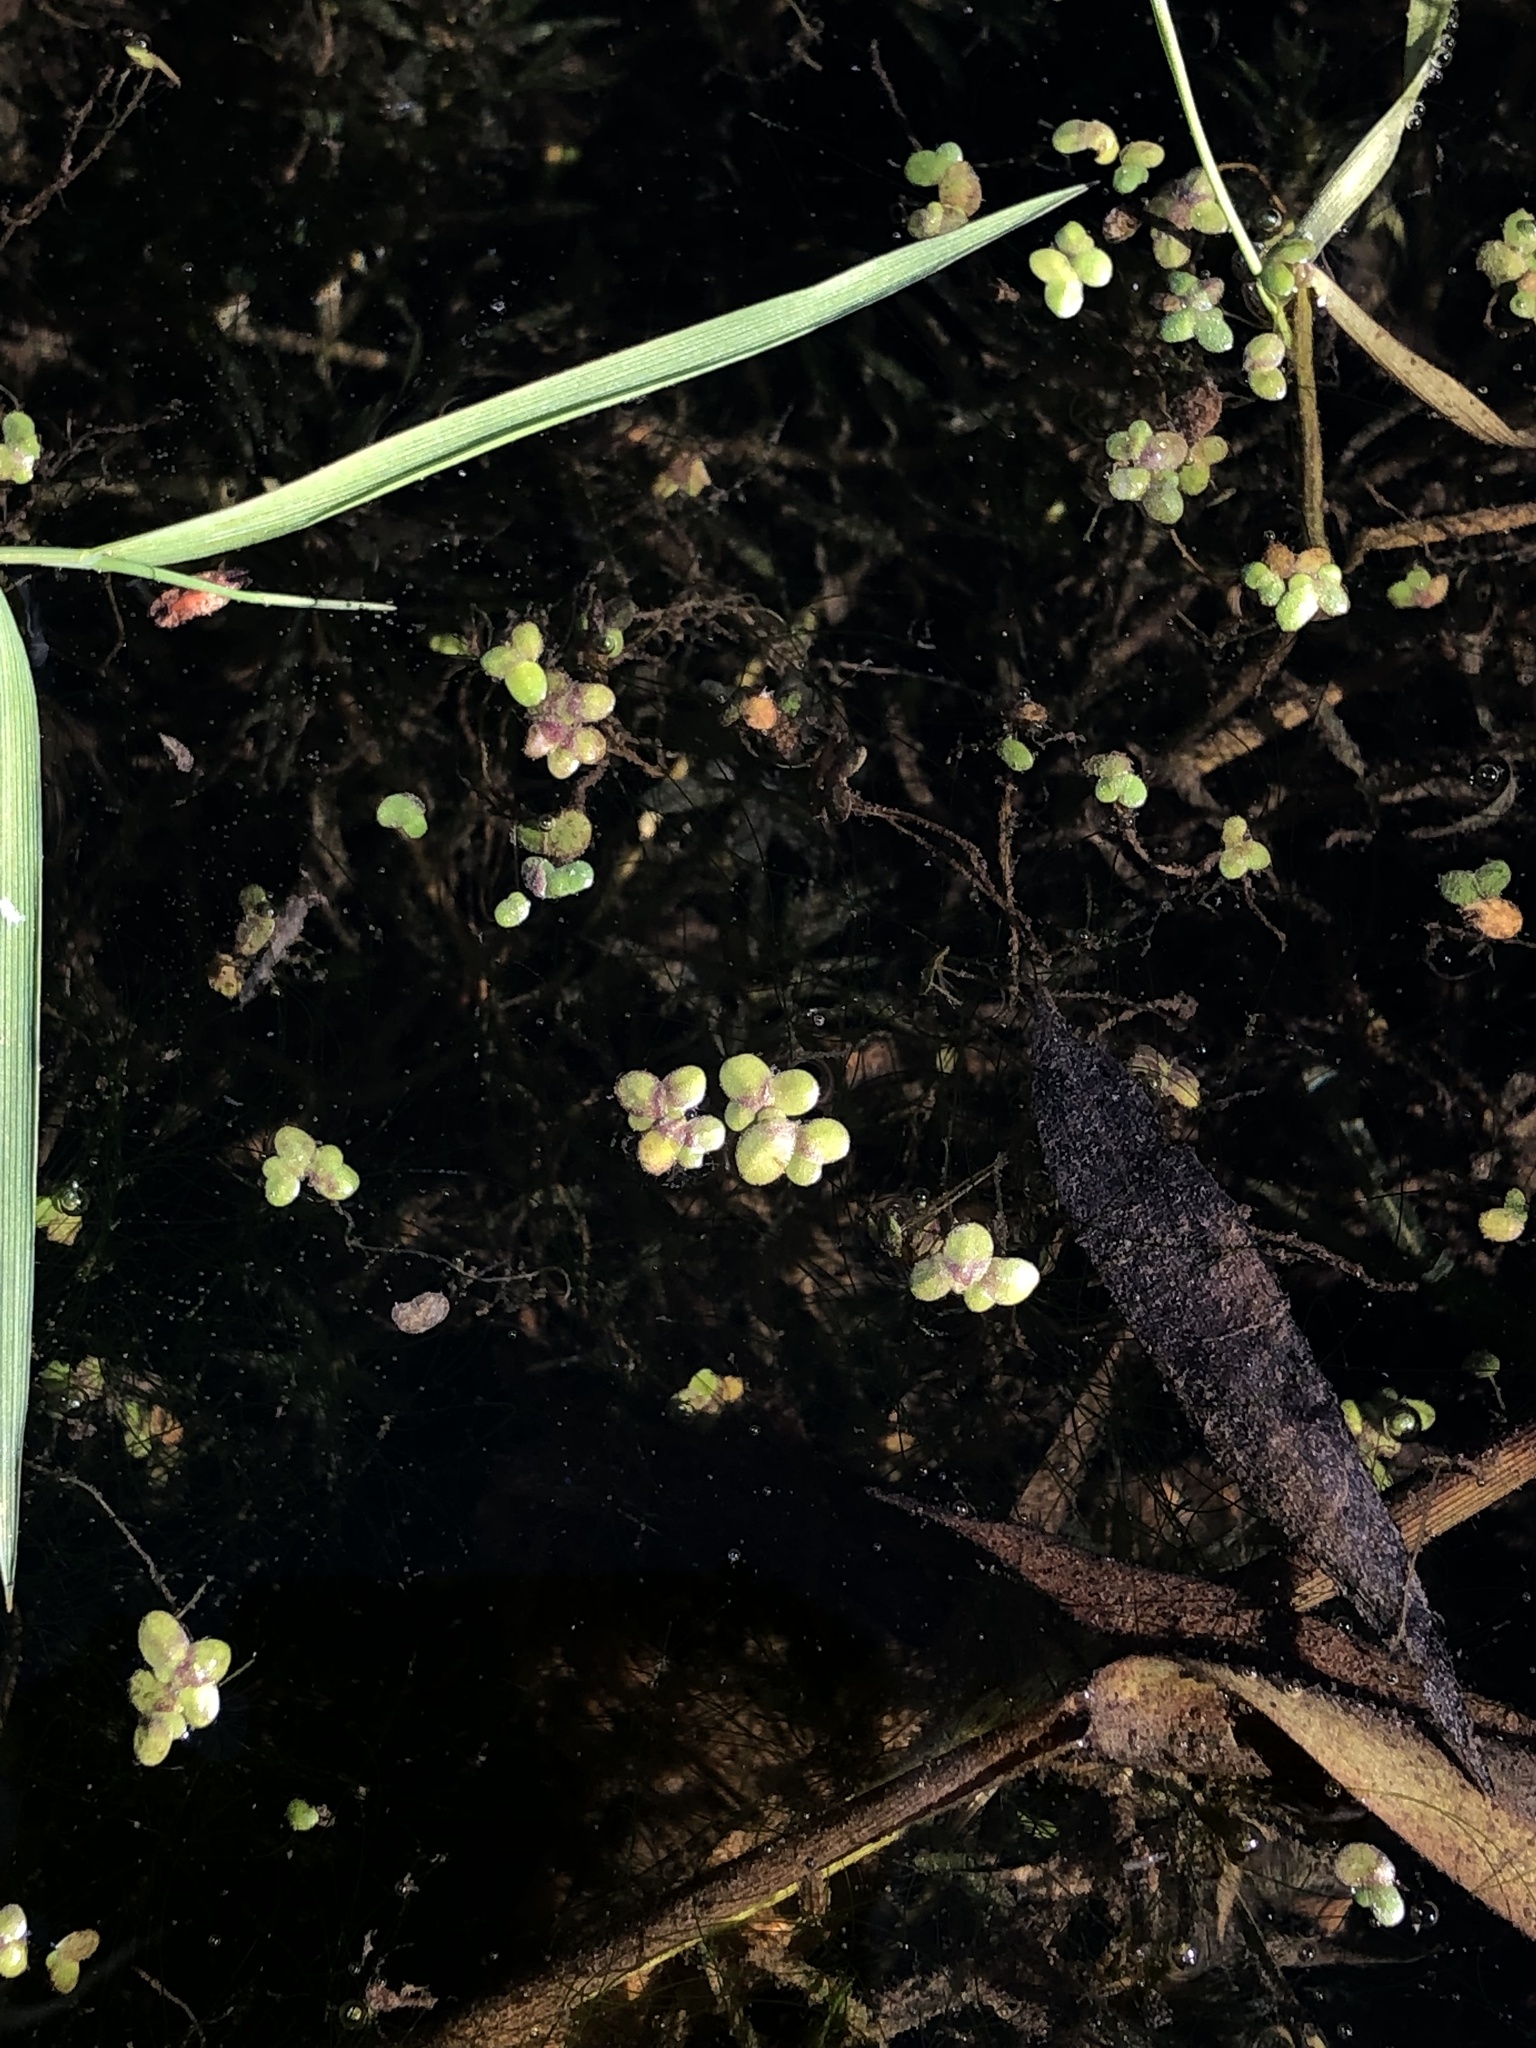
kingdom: Plantae
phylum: Tracheophyta
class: Liliopsida
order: Alismatales
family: Araceae
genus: Lemna
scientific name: Lemna minor
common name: Common duckweed
